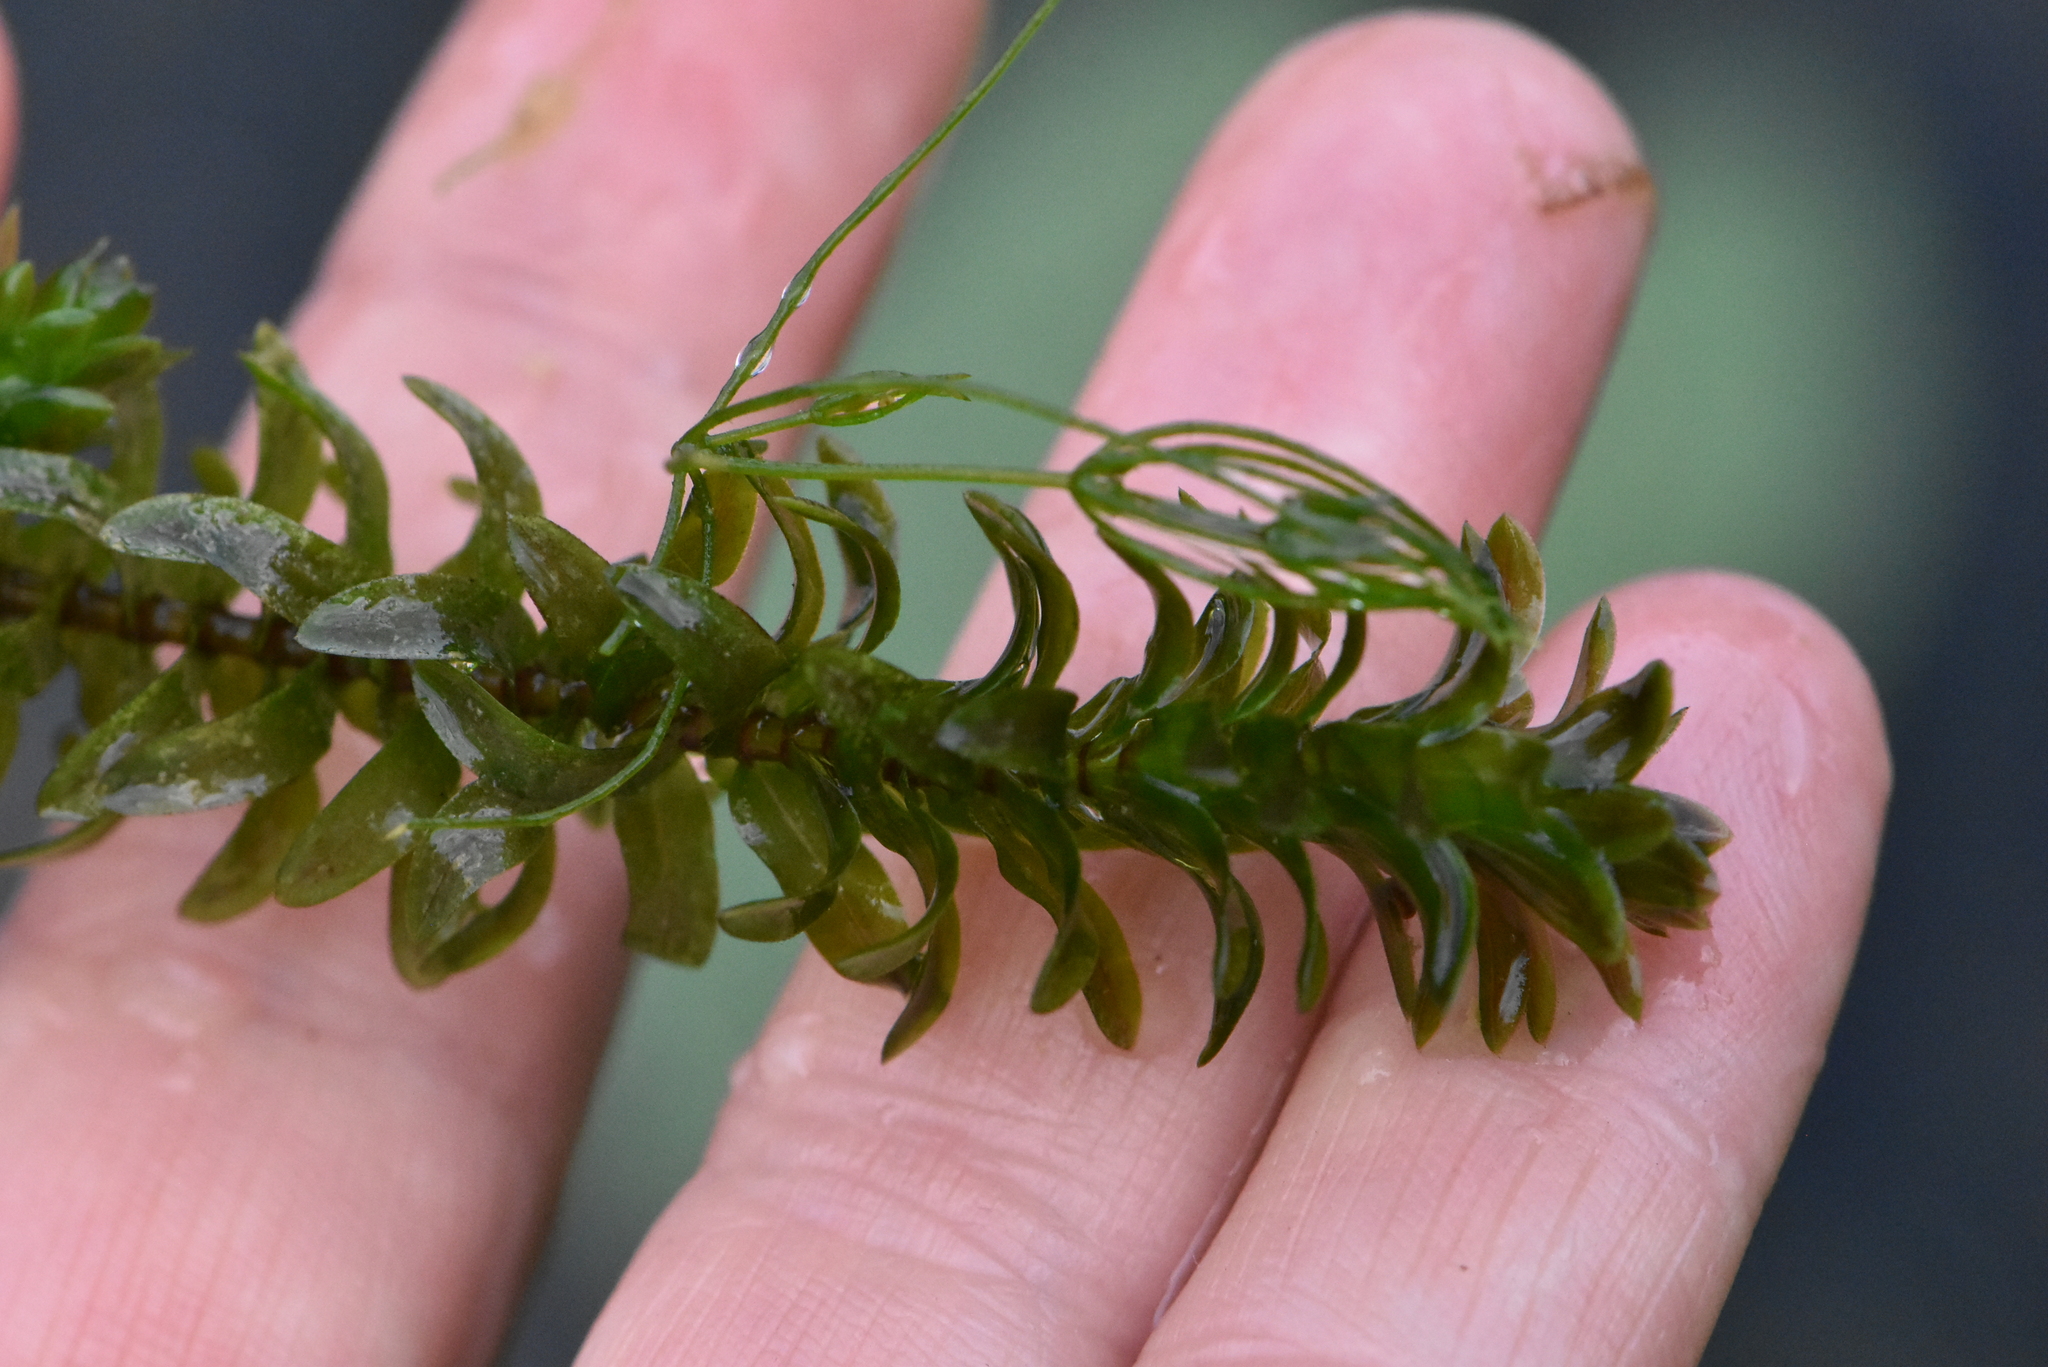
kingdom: Plantae
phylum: Tracheophyta
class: Liliopsida
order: Alismatales
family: Hydrocharitaceae
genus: Elodea
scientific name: Elodea canadensis
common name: Canadian waterweed
